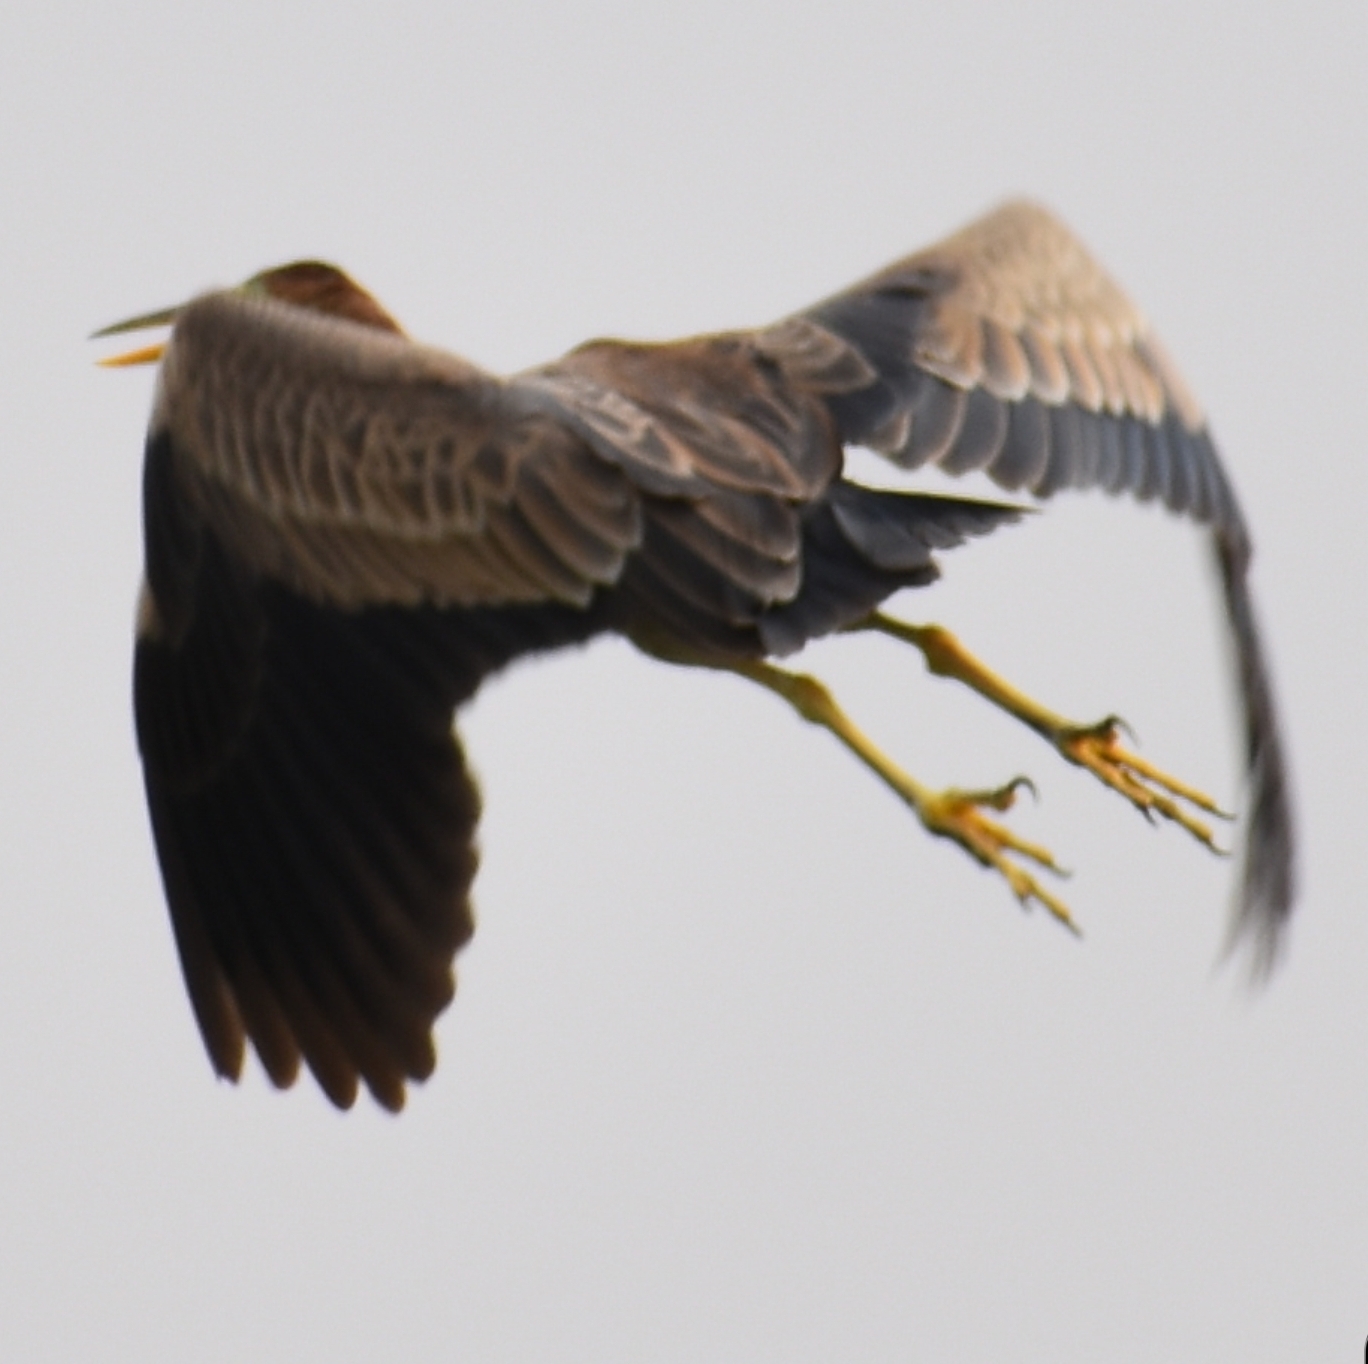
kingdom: Animalia
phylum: Chordata
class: Aves
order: Pelecaniformes
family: Ardeidae
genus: Ardea
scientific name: Ardea purpurea
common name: Purple heron
